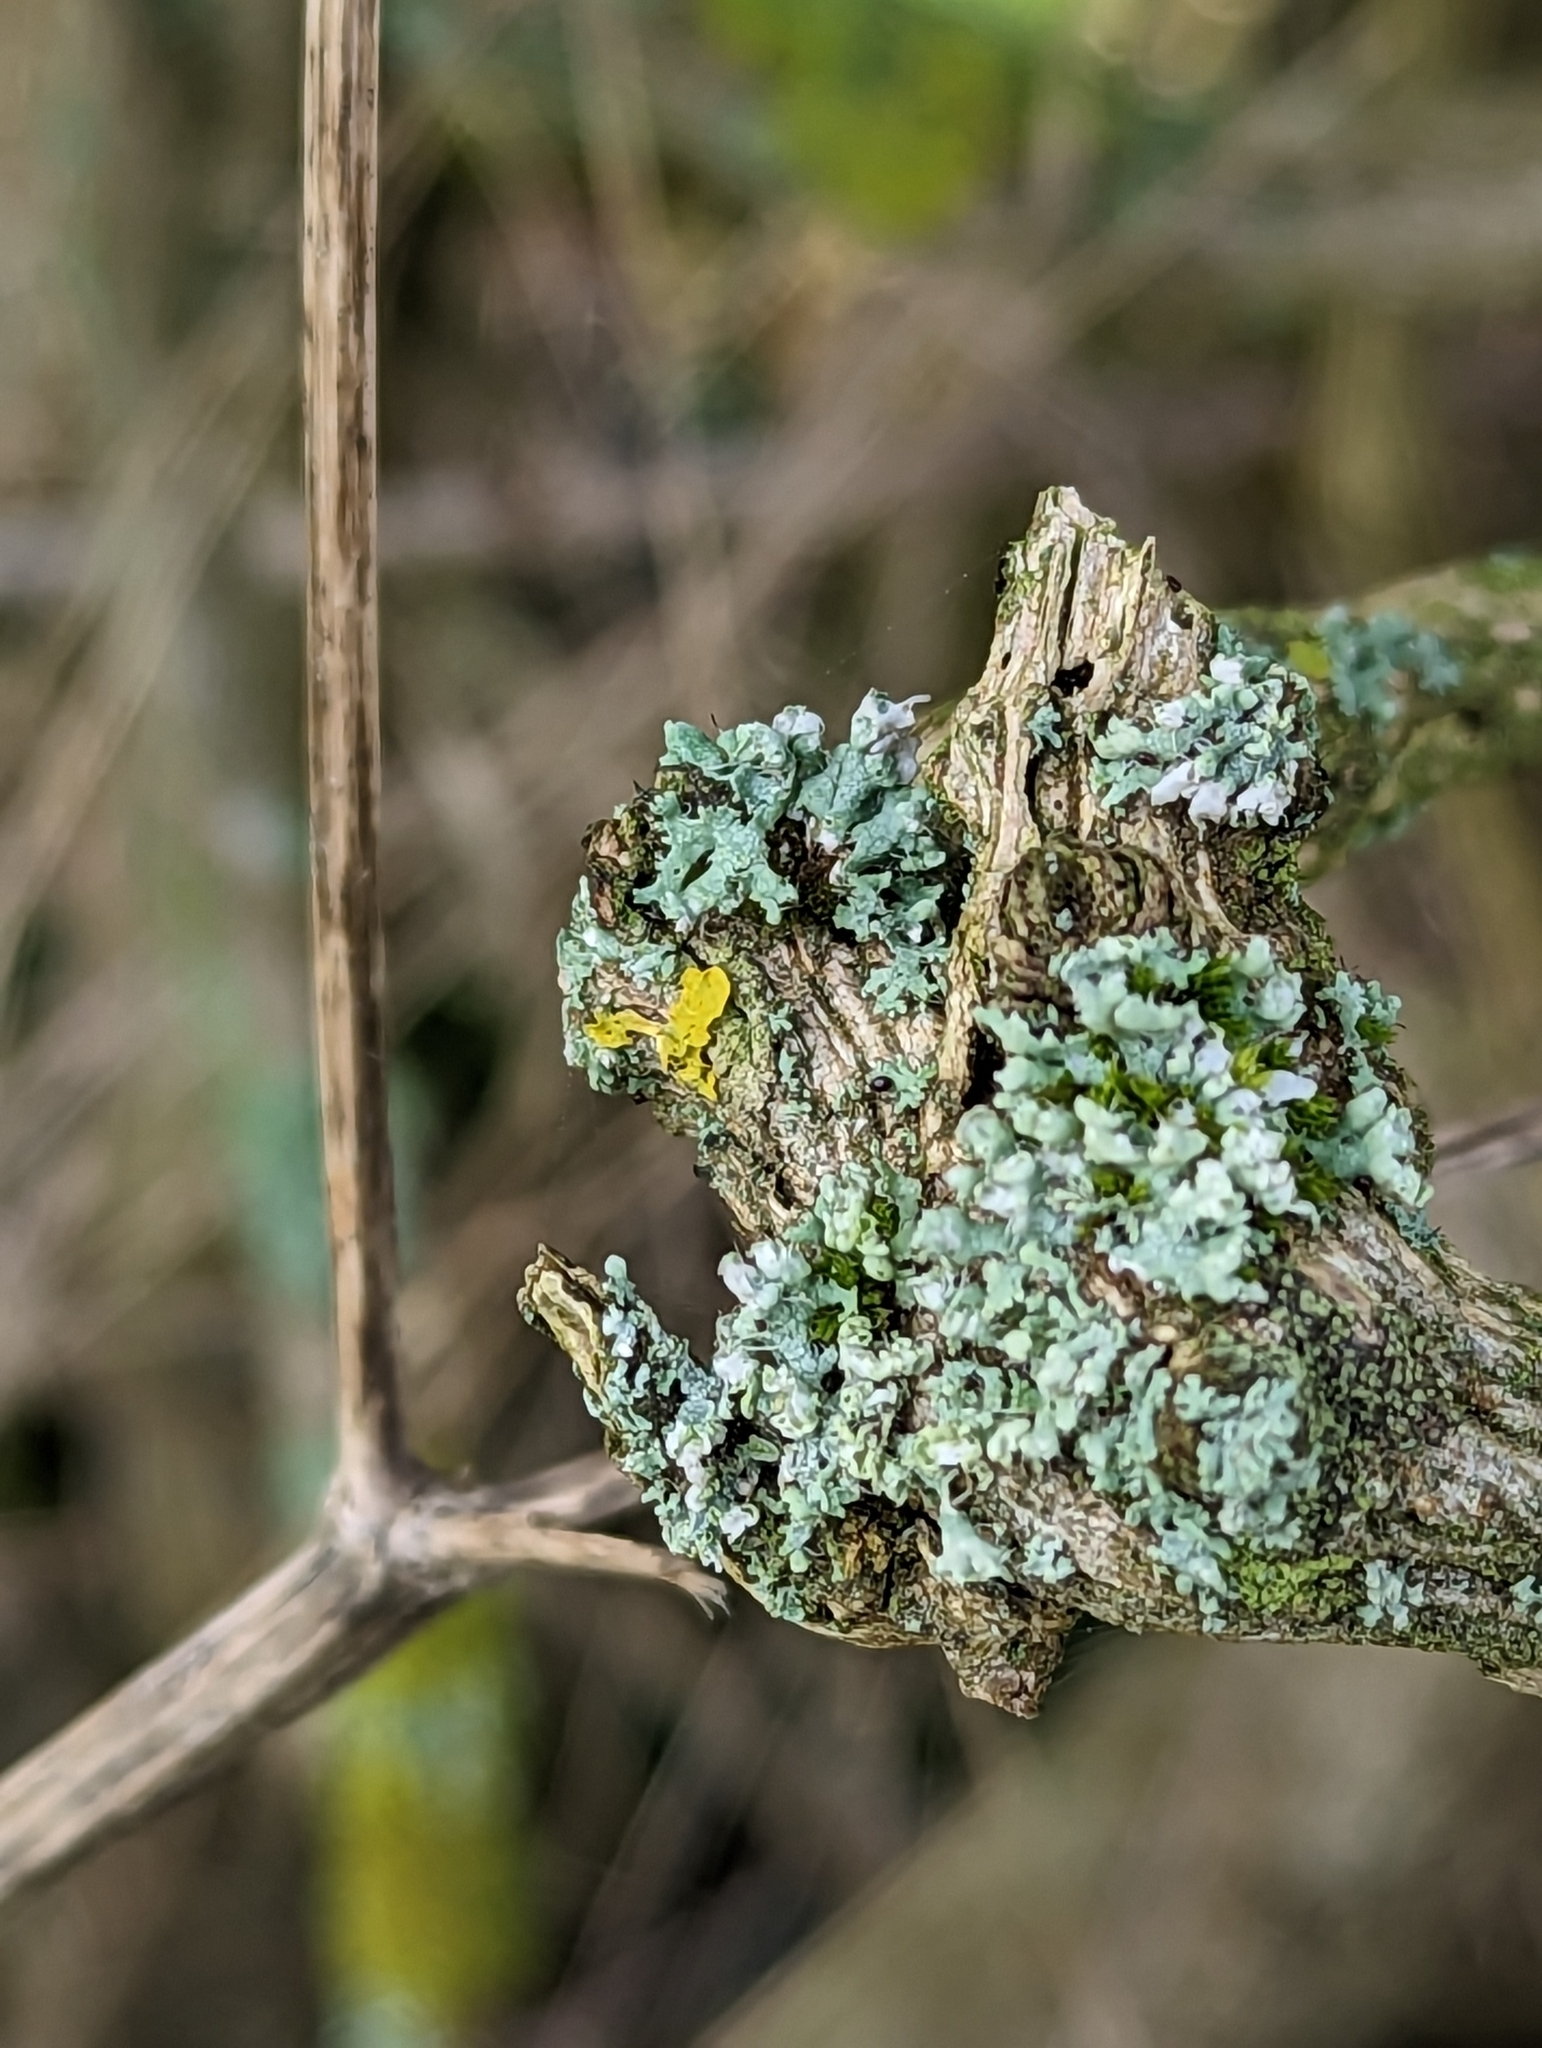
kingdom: Fungi
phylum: Ascomycota
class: Lecanoromycetes
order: Caliciales
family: Physciaceae
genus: Physcia
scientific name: Physcia adscendens
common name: Hooded rosette lichen
